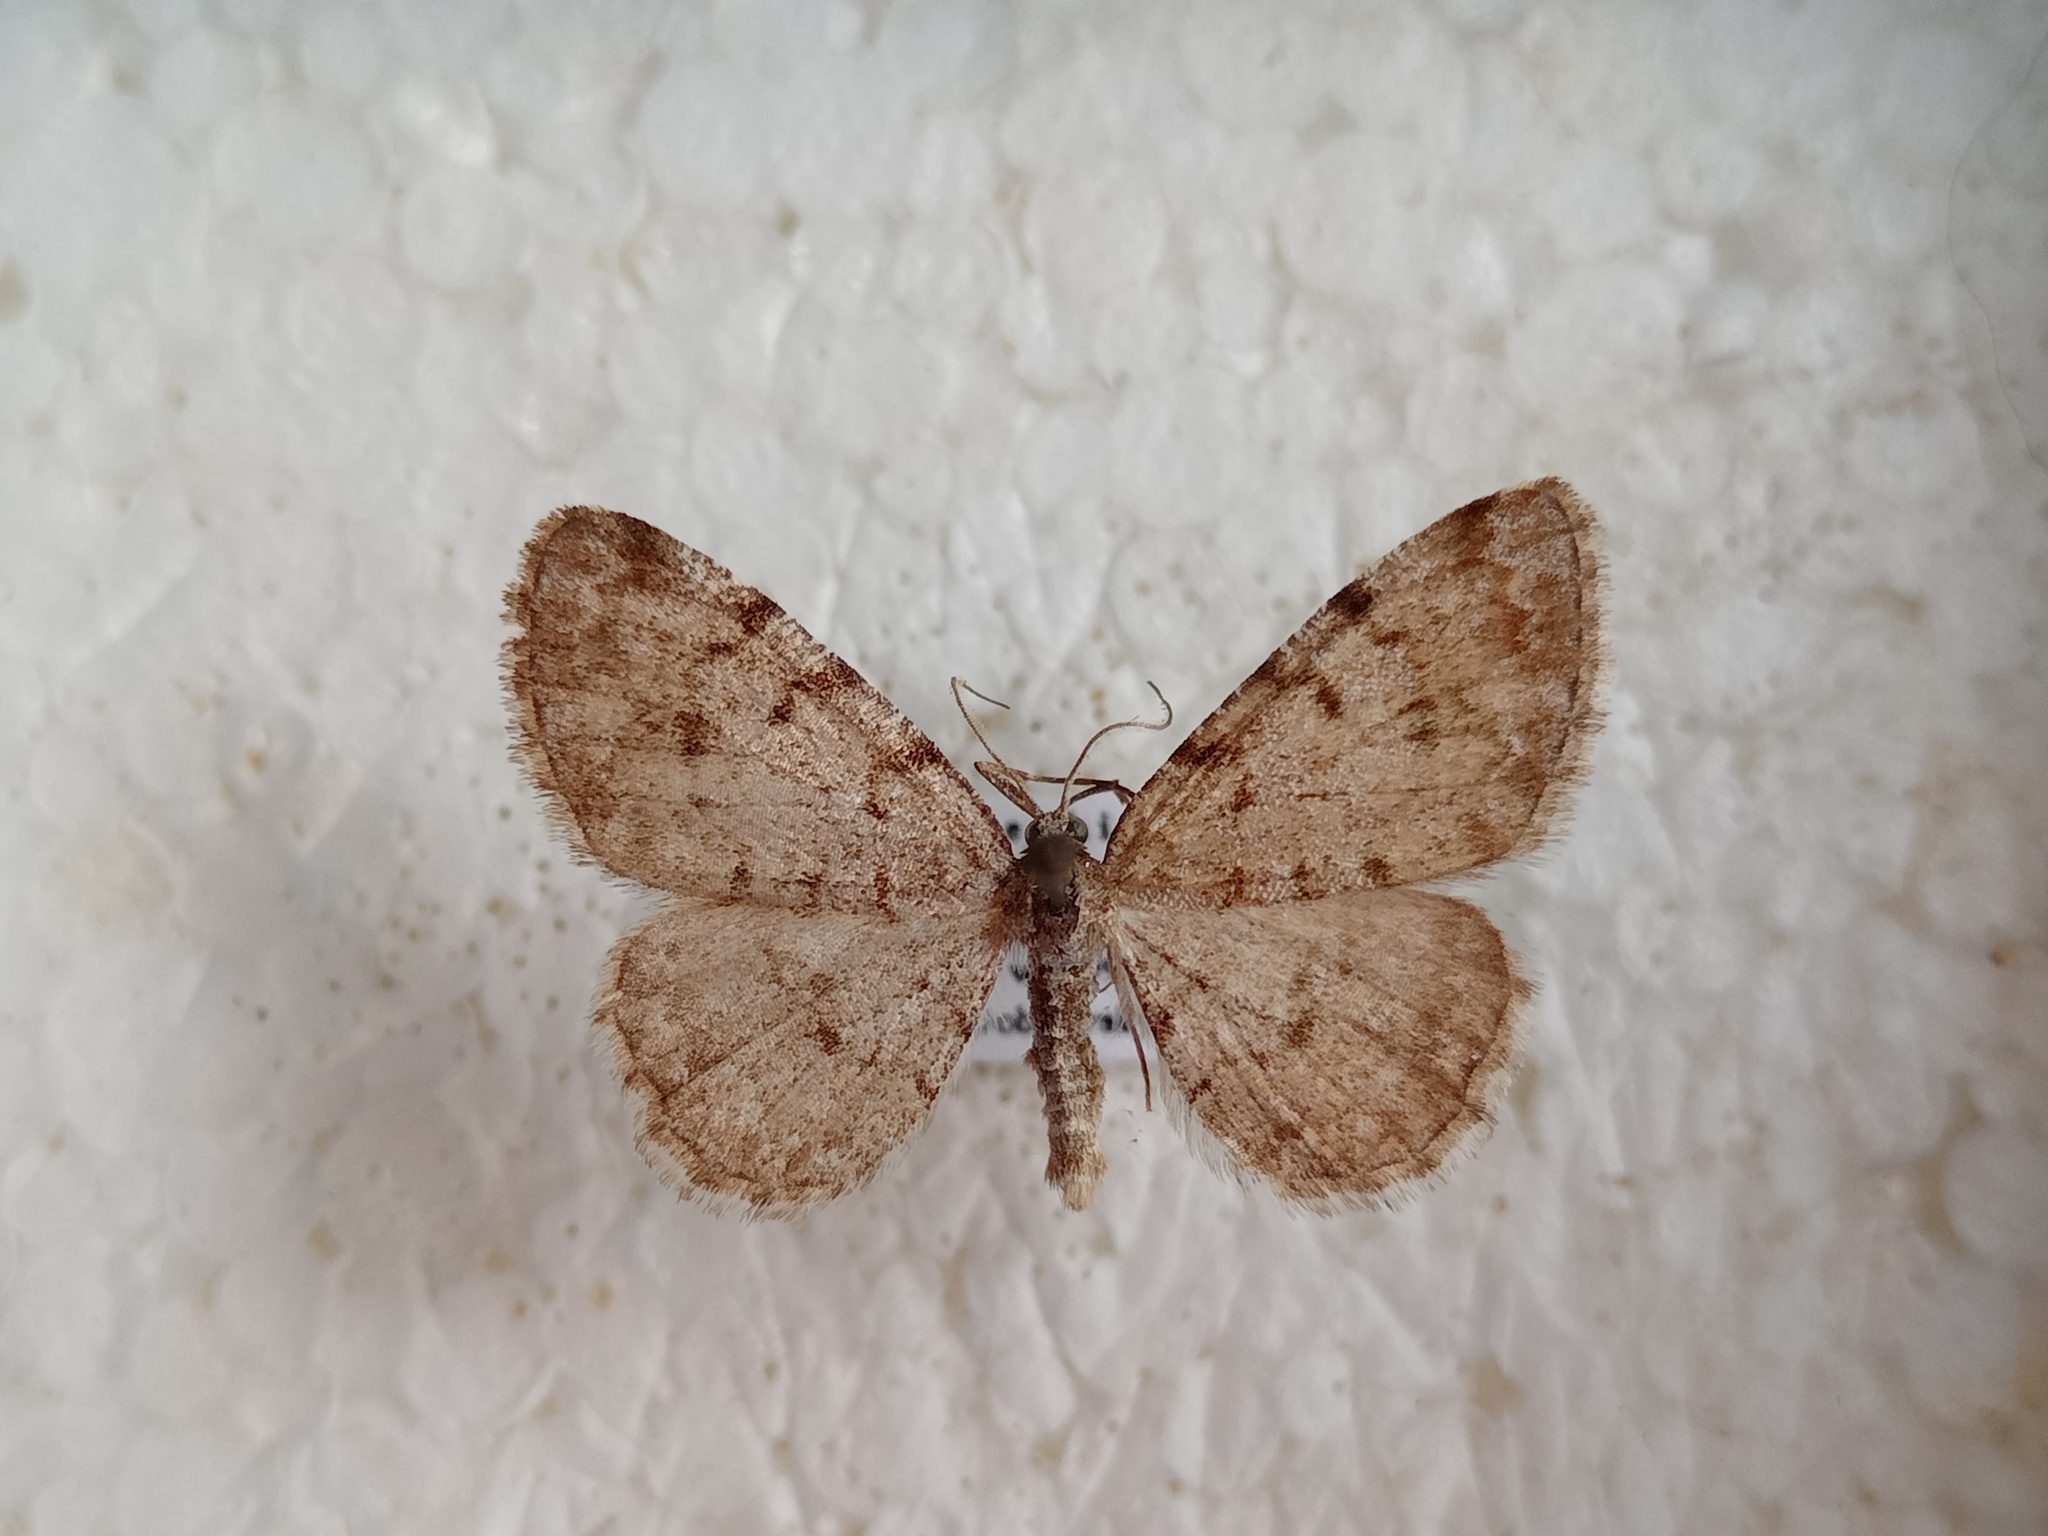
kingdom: Animalia
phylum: Arthropoda
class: Insecta
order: Lepidoptera
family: Geometridae
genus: Aethalura
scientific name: Aethalura punctulata
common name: Grey birch
